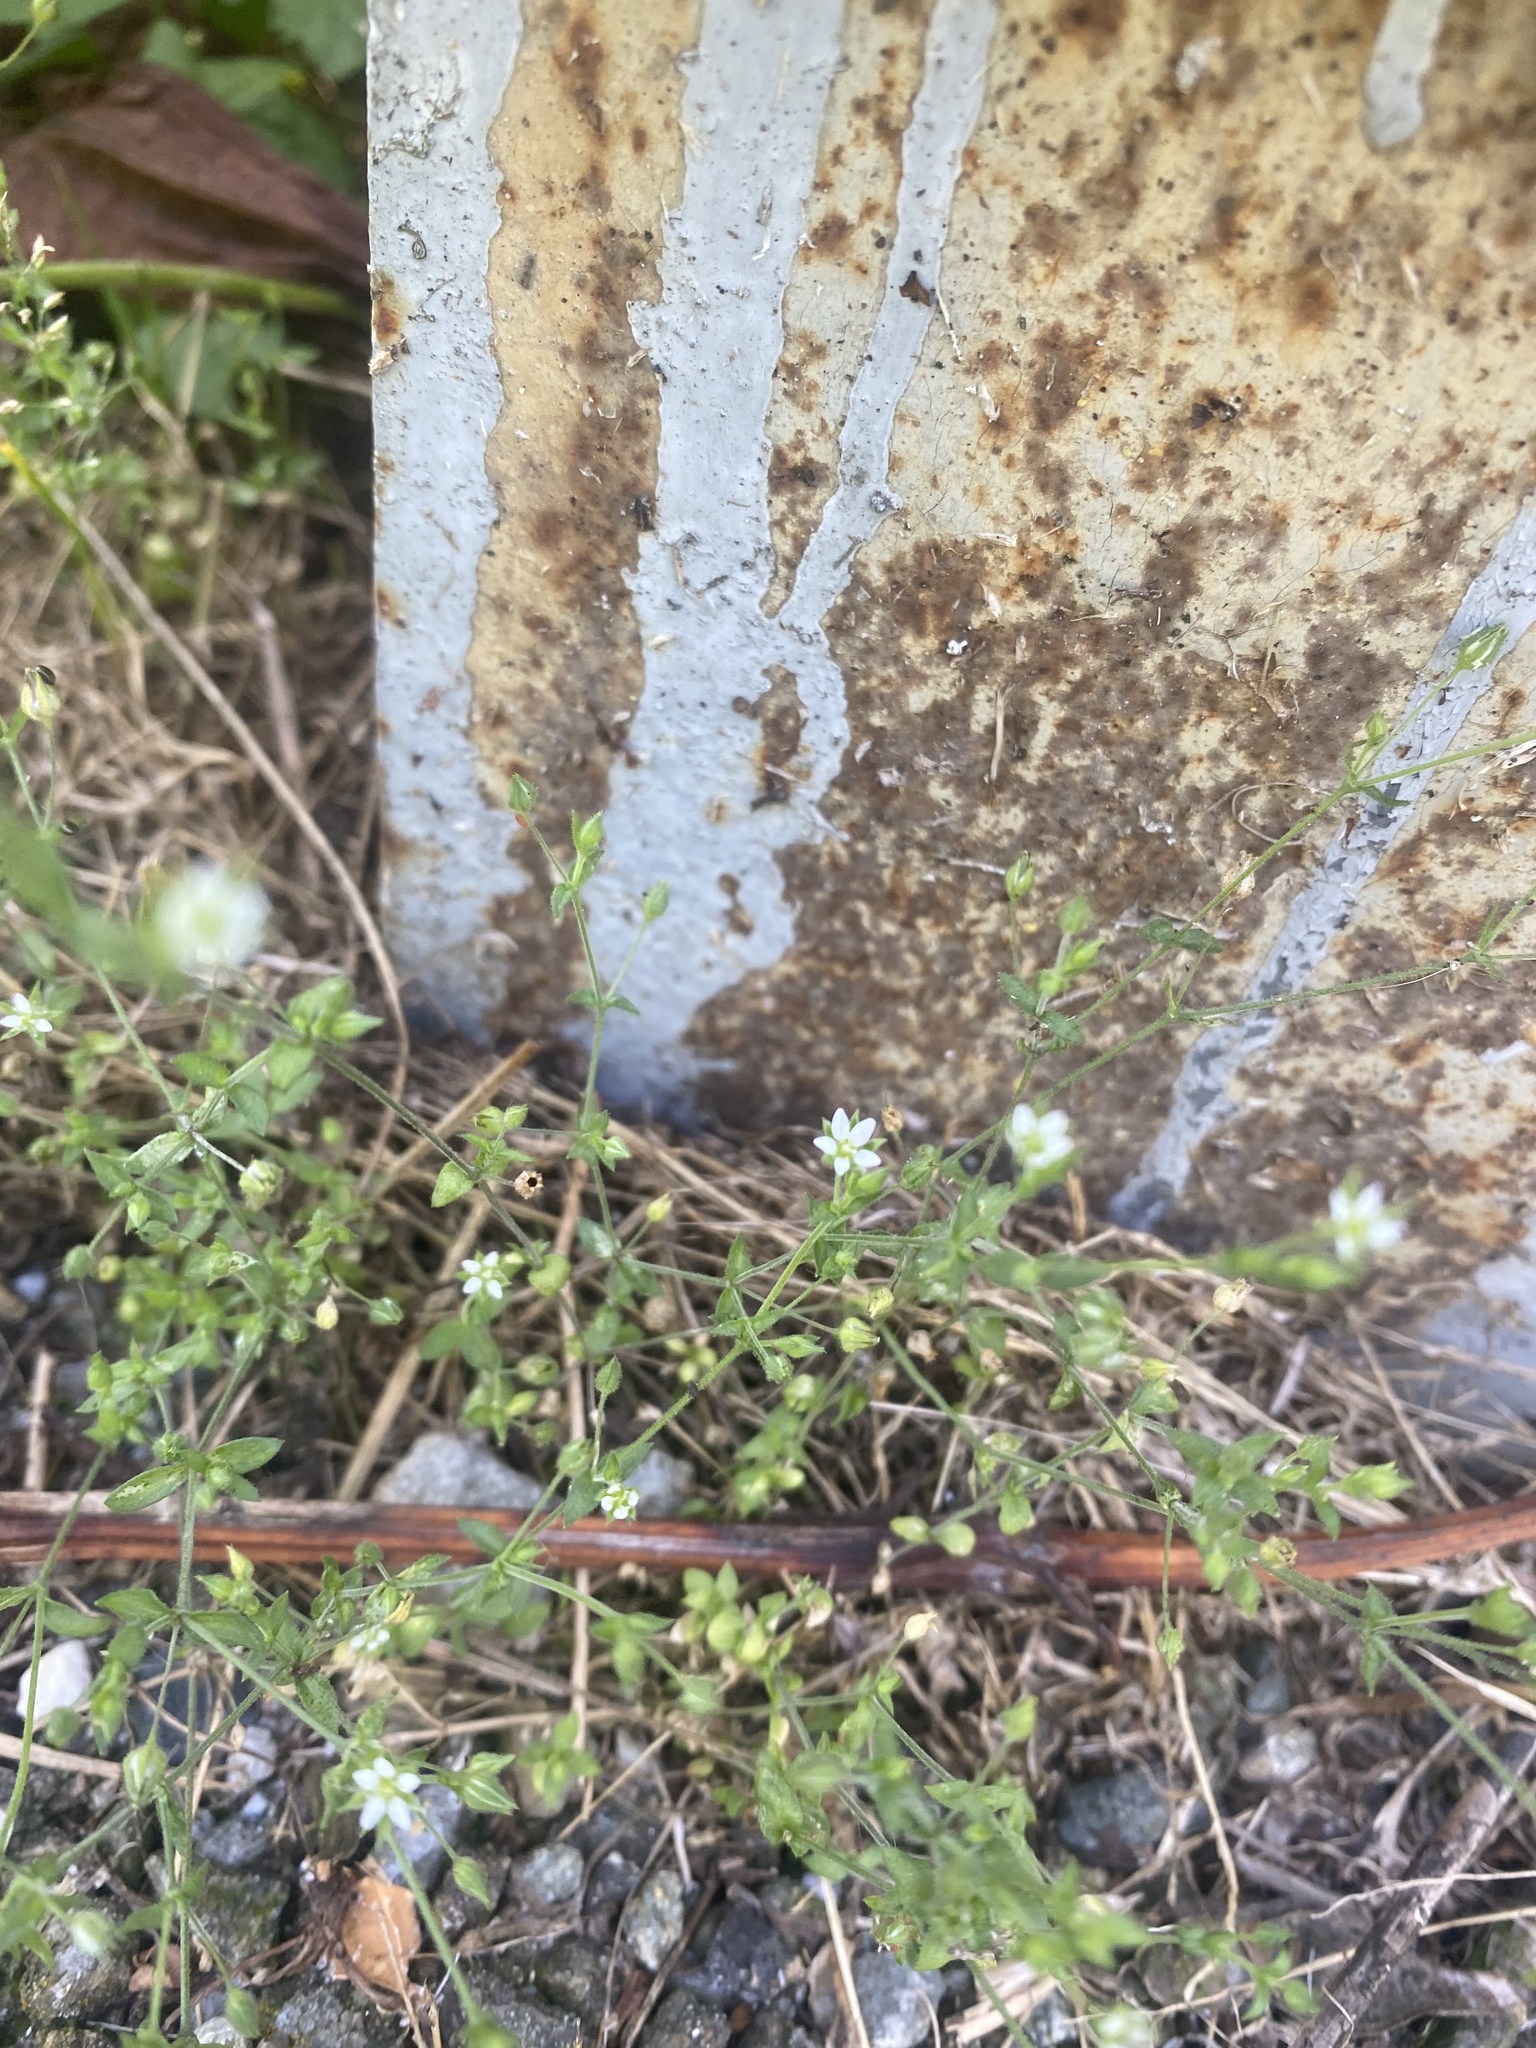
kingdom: Plantae
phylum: Tracheophyta
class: Magnoliopsida
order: Caryophyllales
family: Caryophyllaceae
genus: Arenaria
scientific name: Arenaria serpyllifolia
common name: Thyme-leaved sandwort
